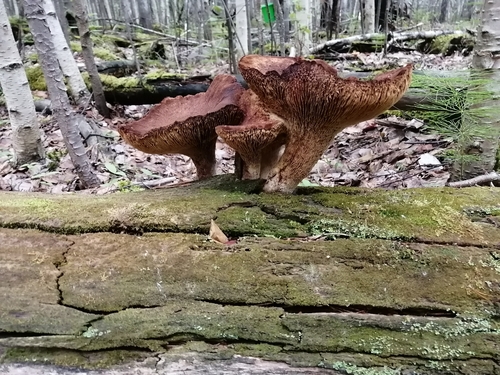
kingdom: Fungi
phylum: Basidiomycota
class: Agaricomycetes
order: Gloeophyllales
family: Gloeophyllaceae
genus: Neolentinus
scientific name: Neolentinus cyathiformis
